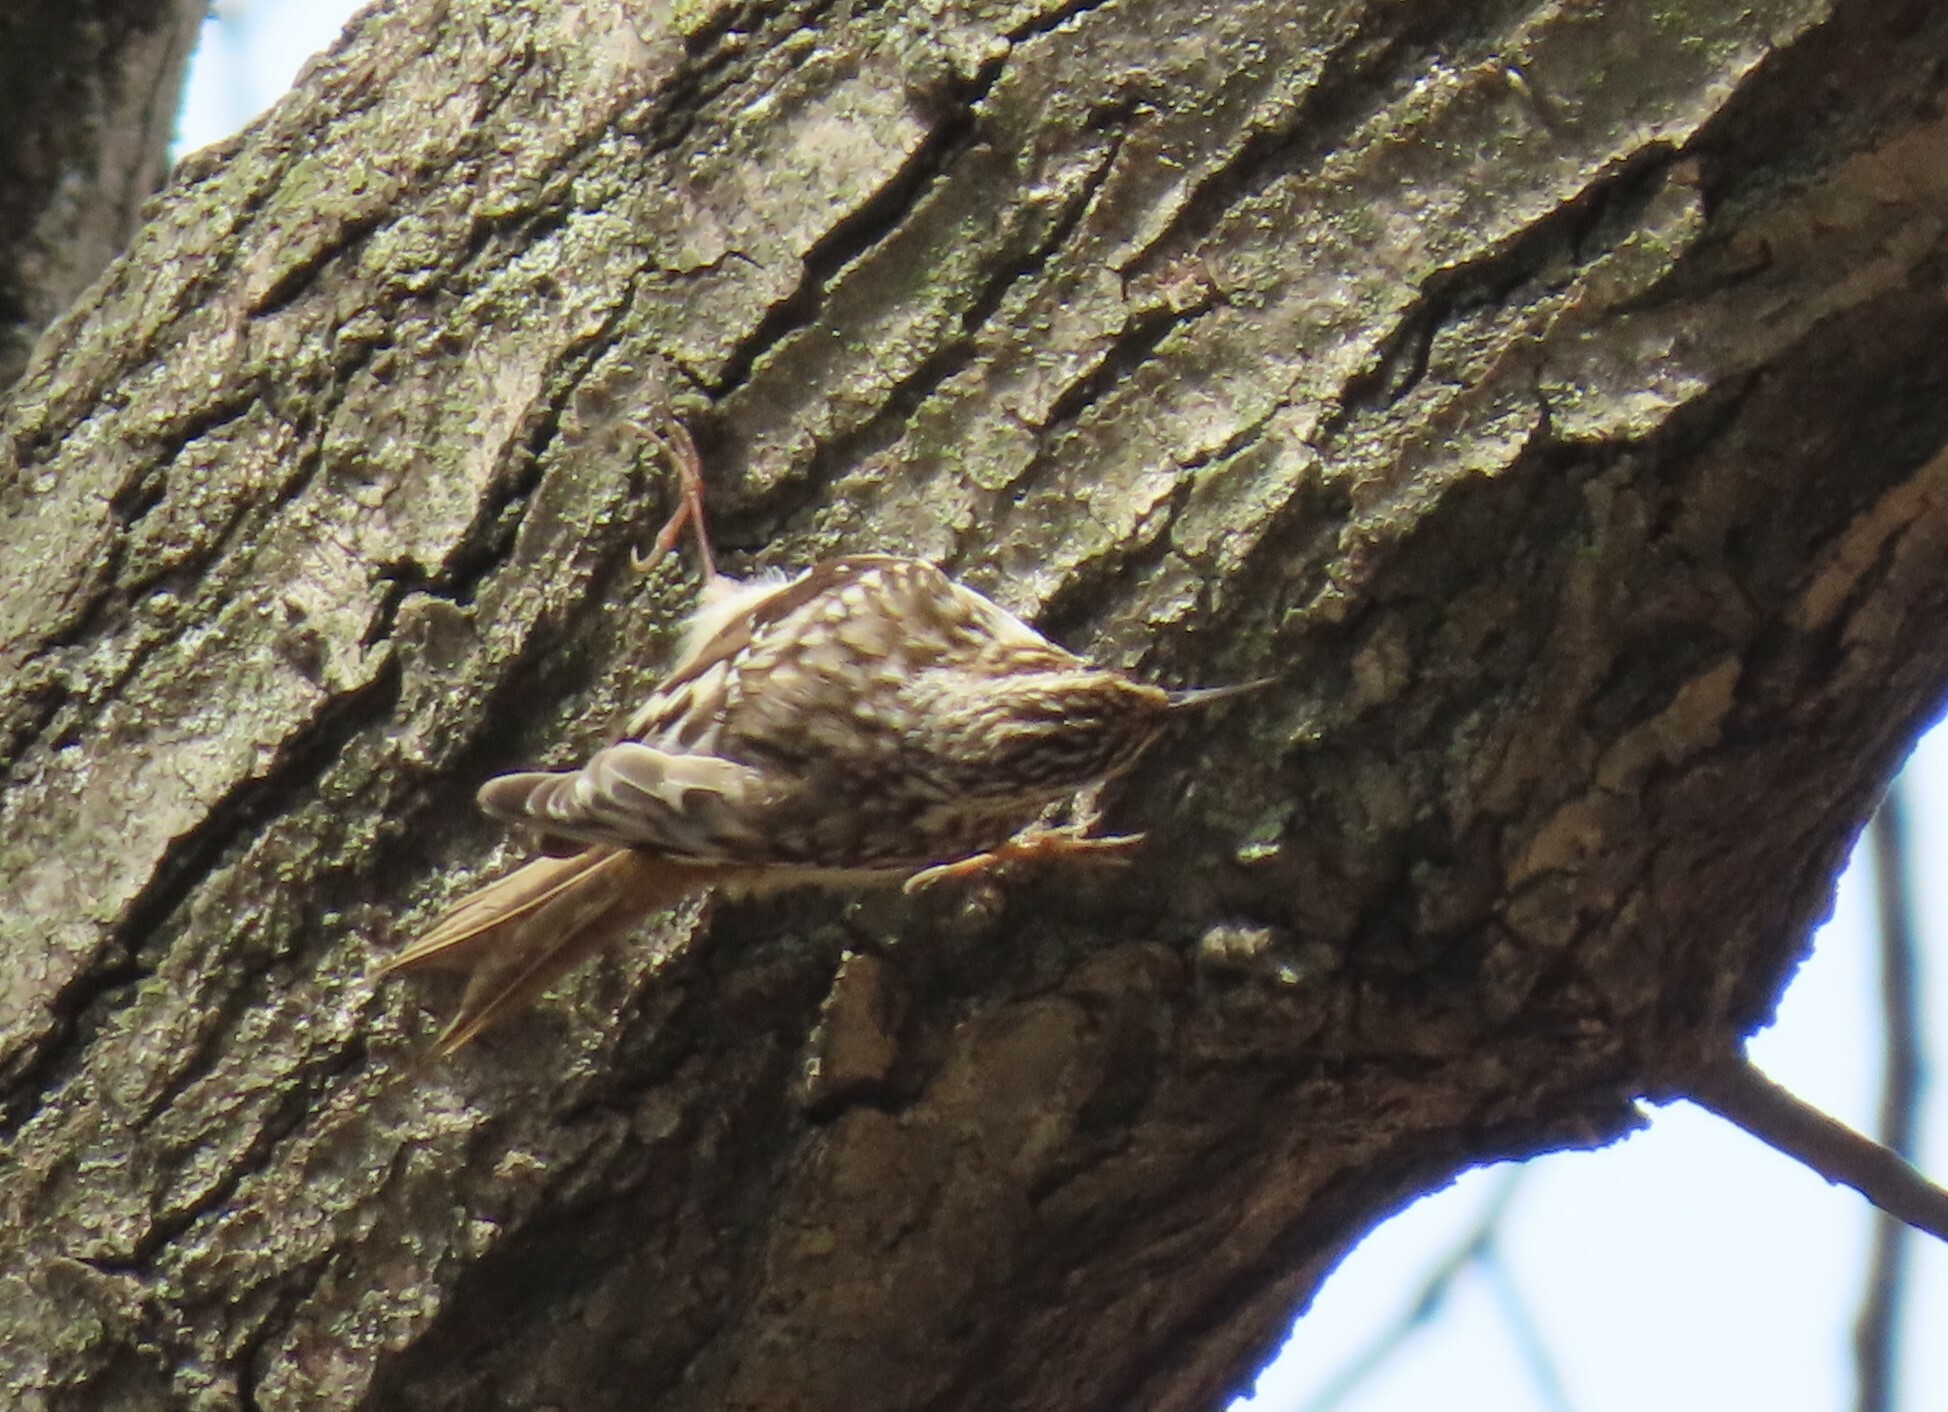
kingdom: Animalia
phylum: Chordata
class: Aves
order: Passeriformes
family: Certhiidae
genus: Certhia
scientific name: Certhia americana
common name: Brown creeper
